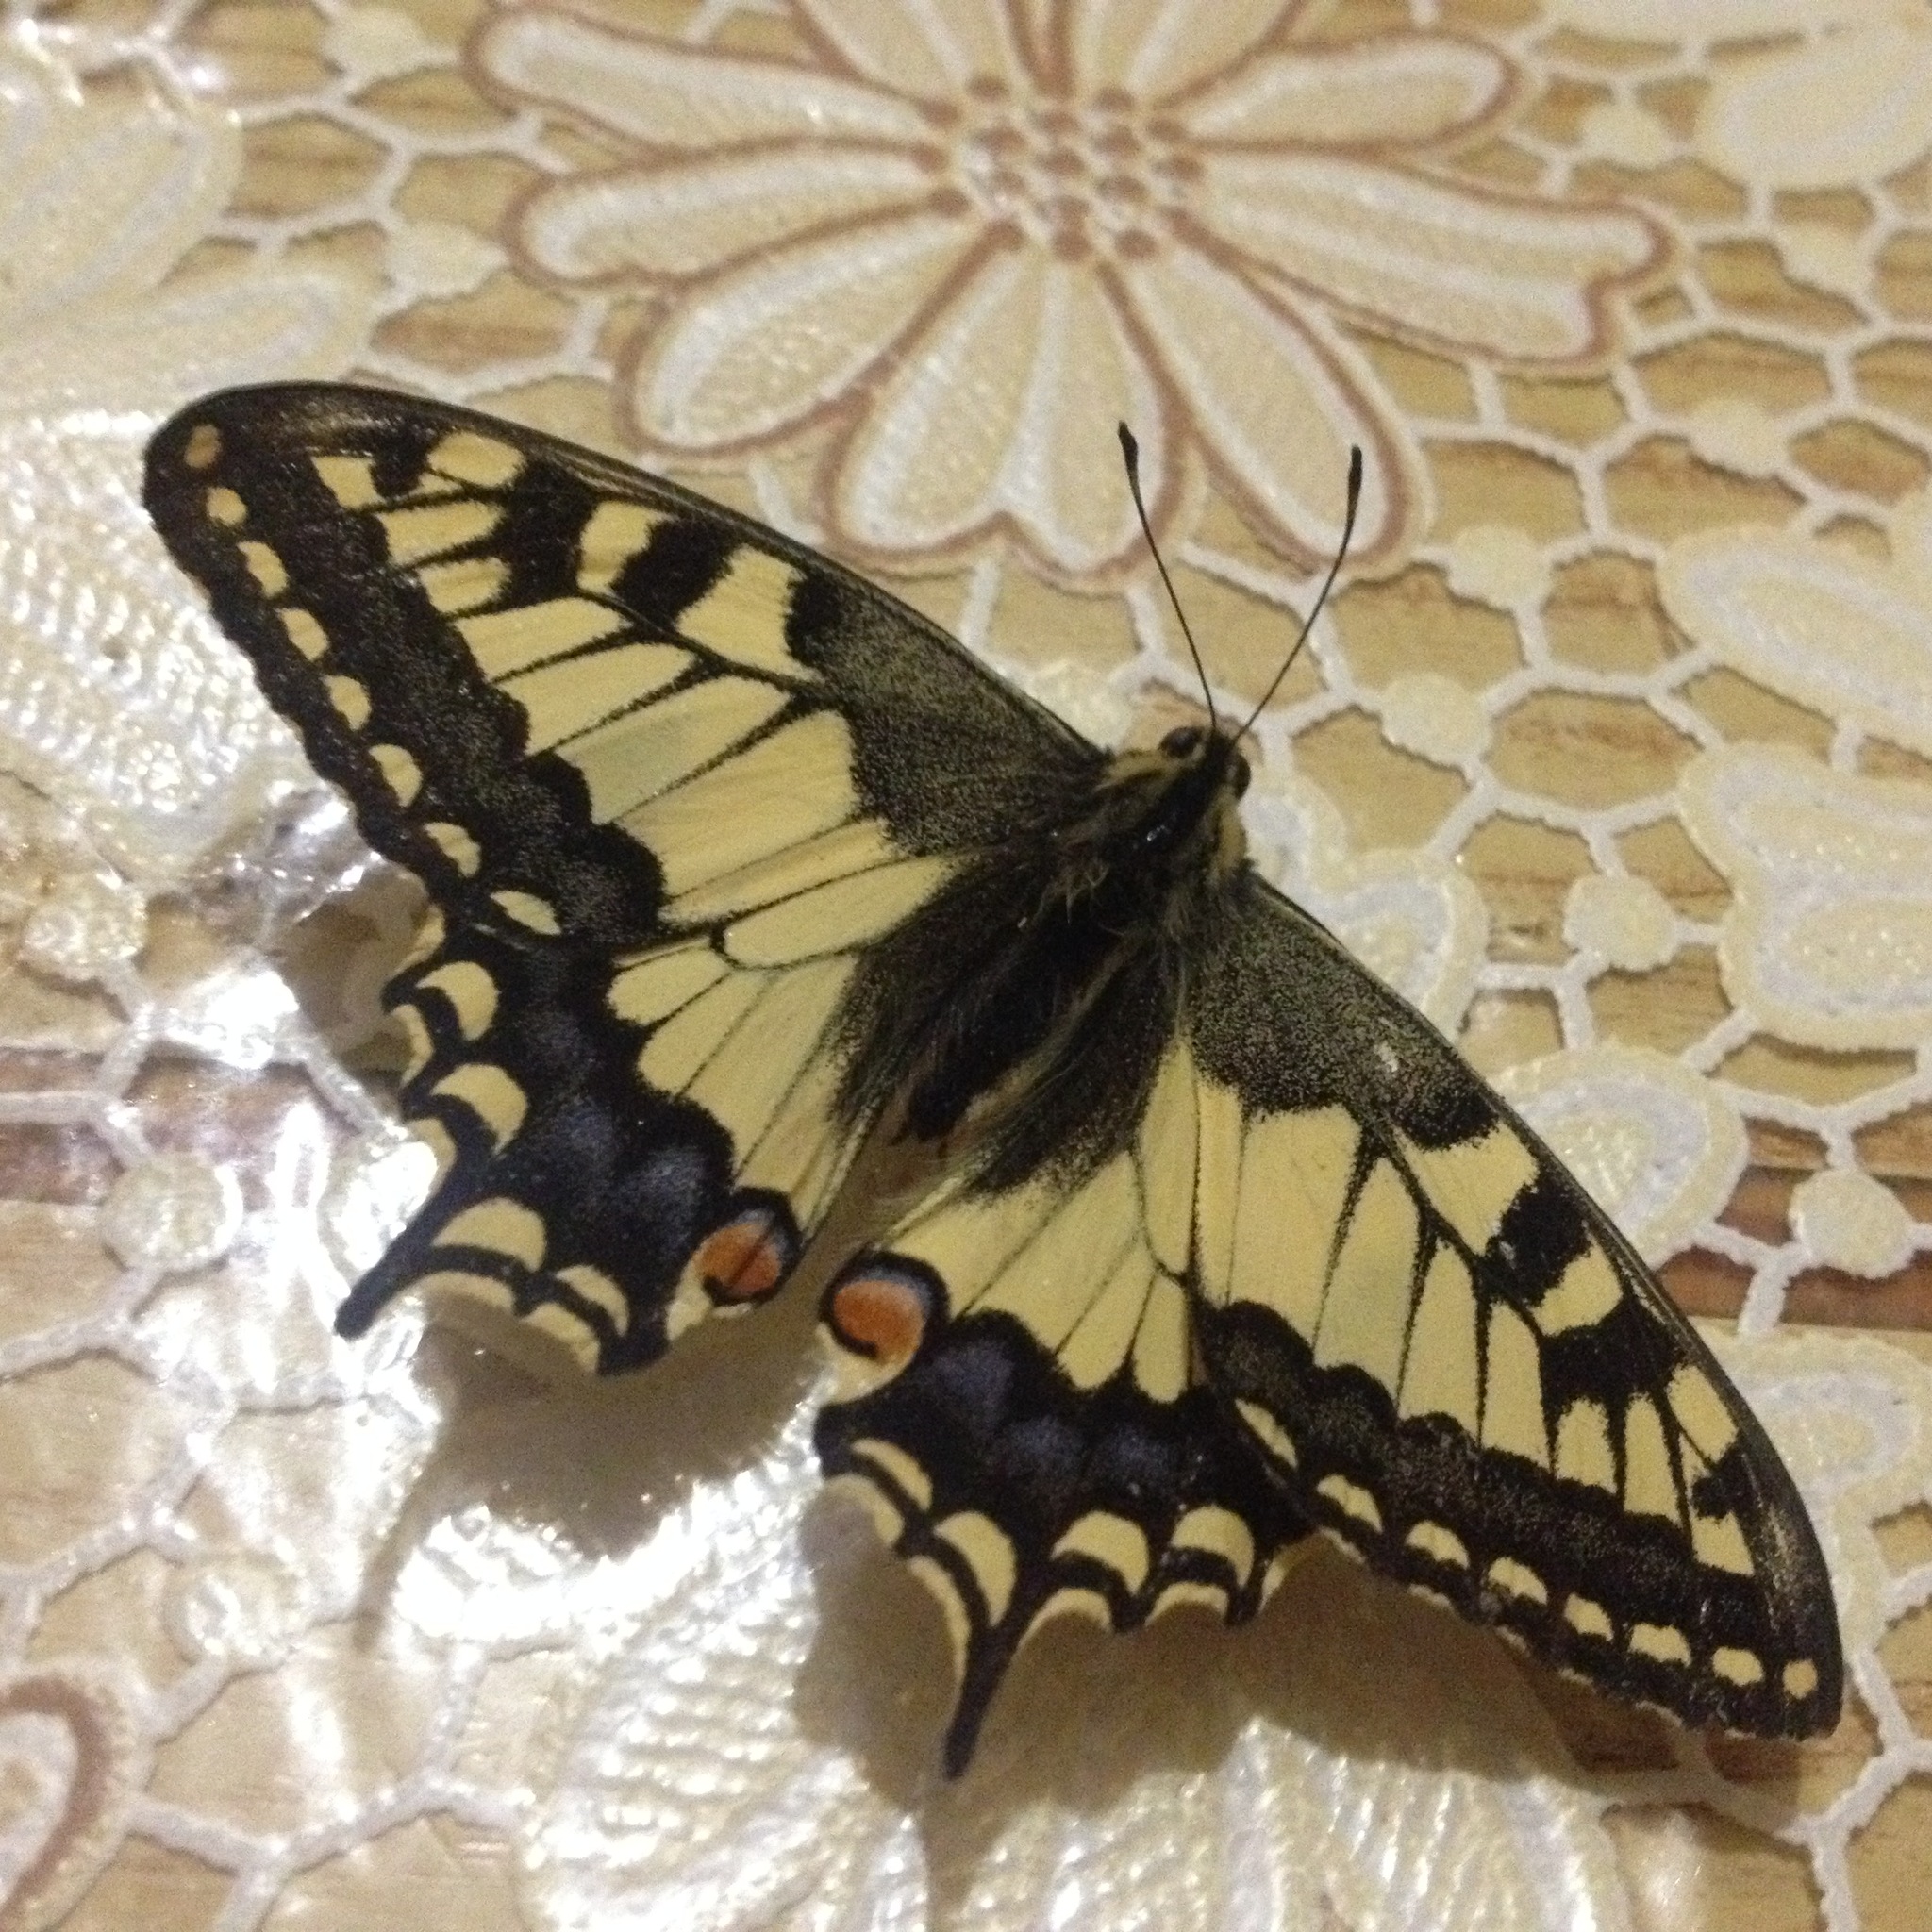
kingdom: Animalia
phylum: Arthropoda
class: Insecta
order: Lepidoptera
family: Papilionidae
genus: Papilio
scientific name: Papilio machaon
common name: Swallowtail
